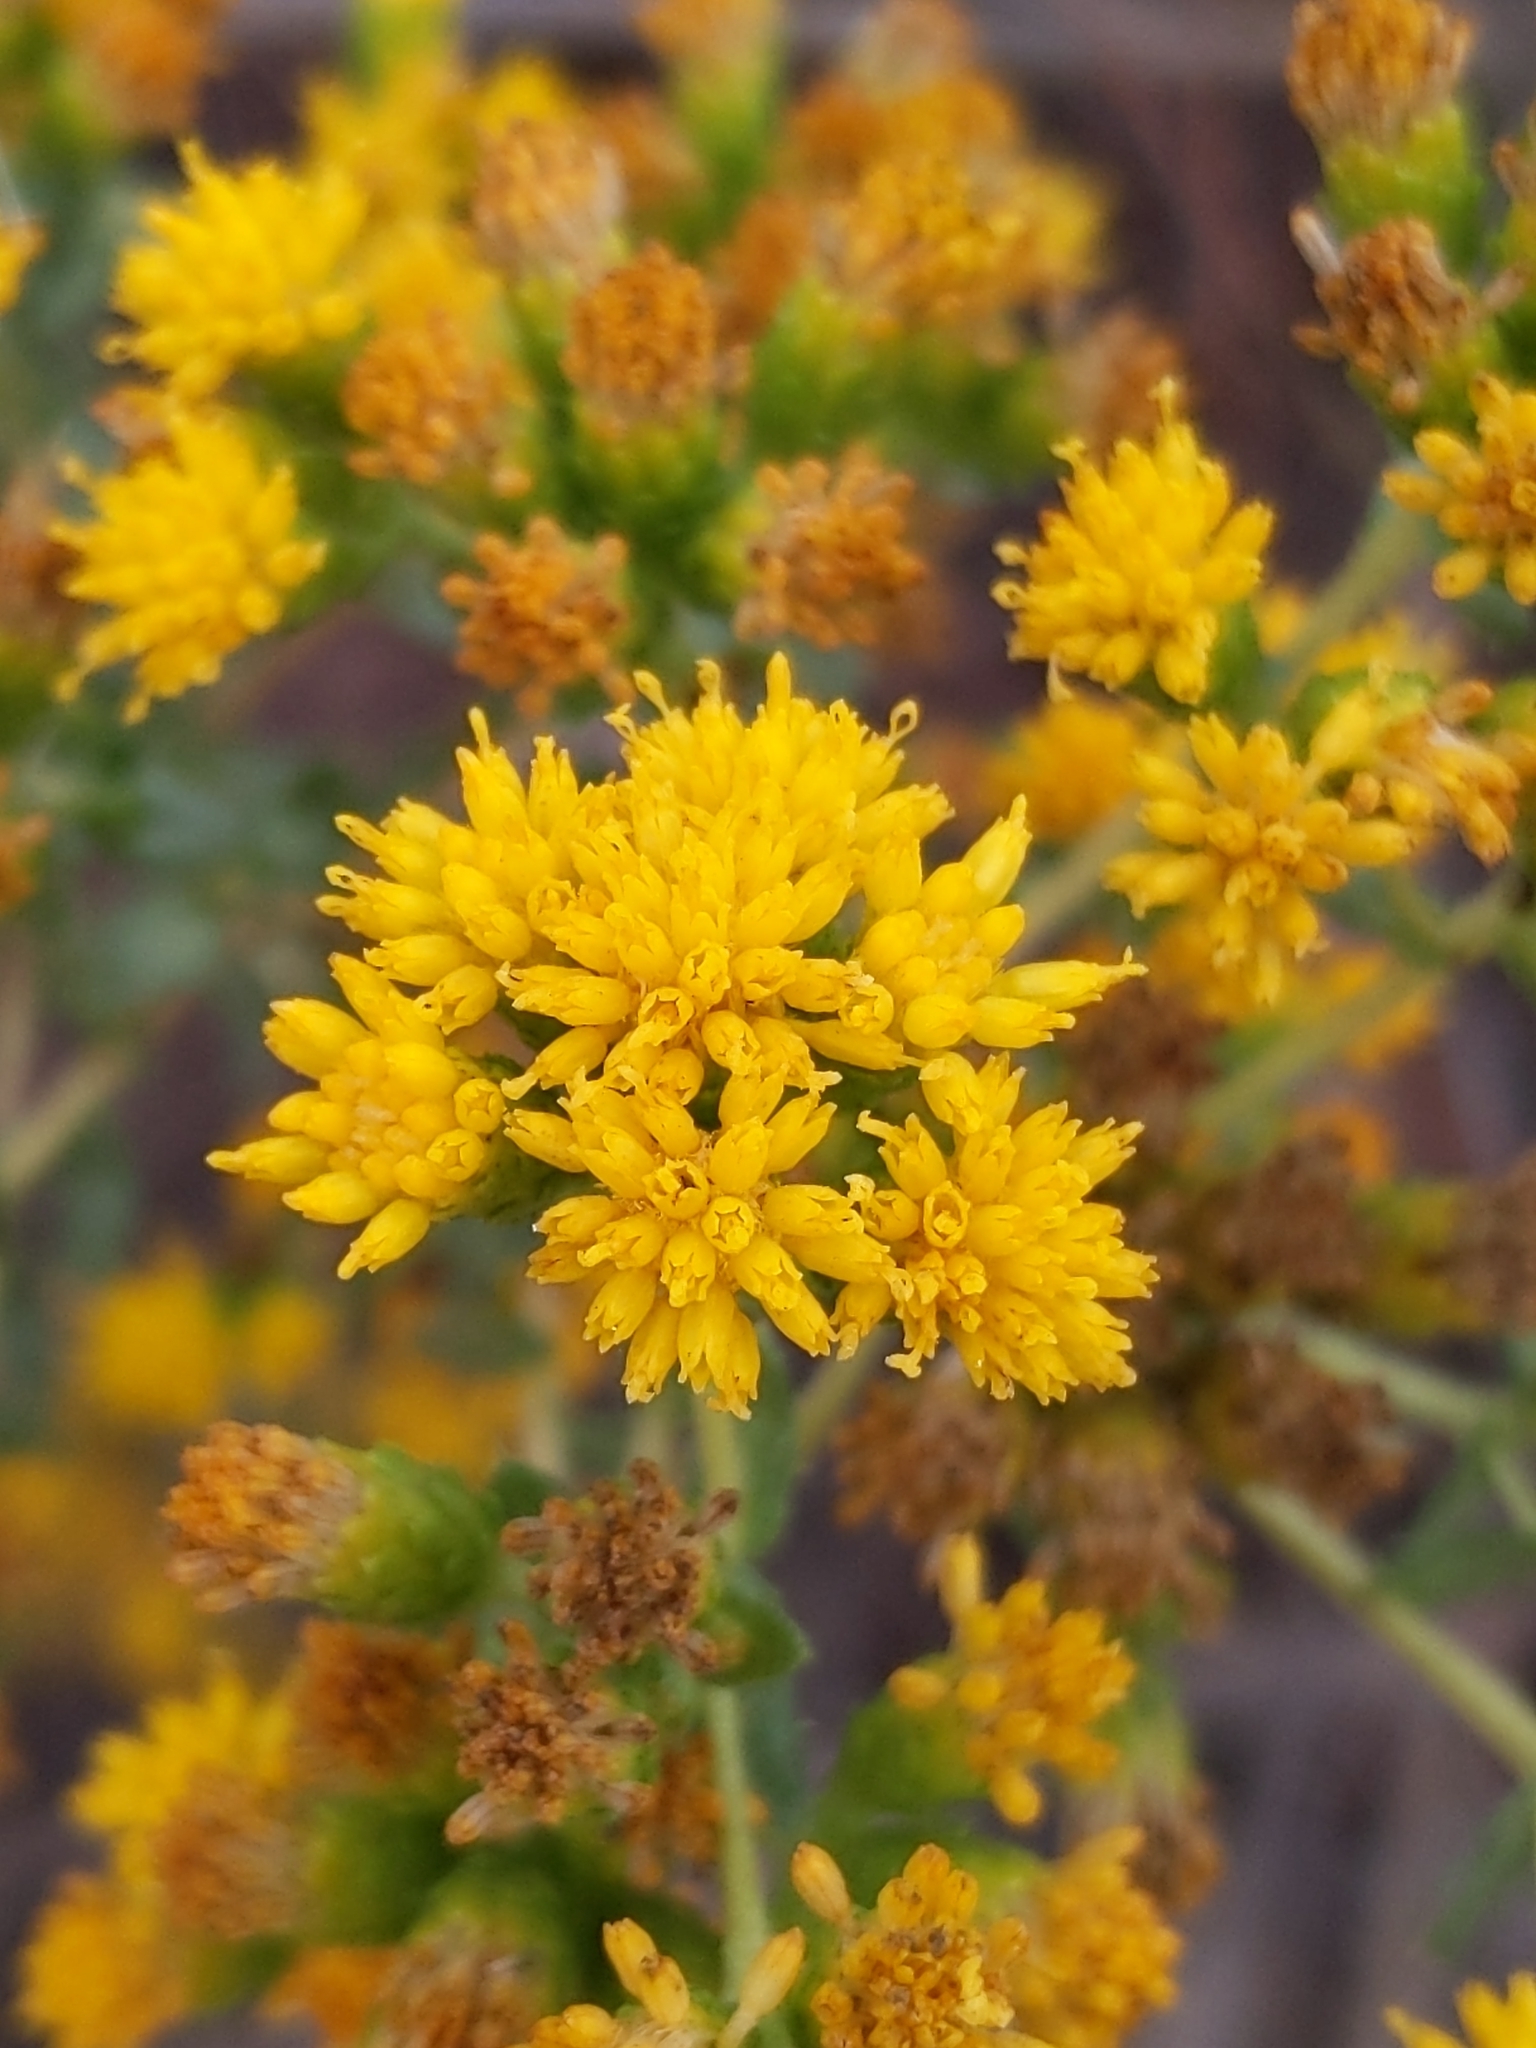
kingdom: Plantae
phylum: Tracheophyta
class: Magnoliopsida
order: Asterales
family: Asteraceae
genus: Isocoma
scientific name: Isocoma menziesii
